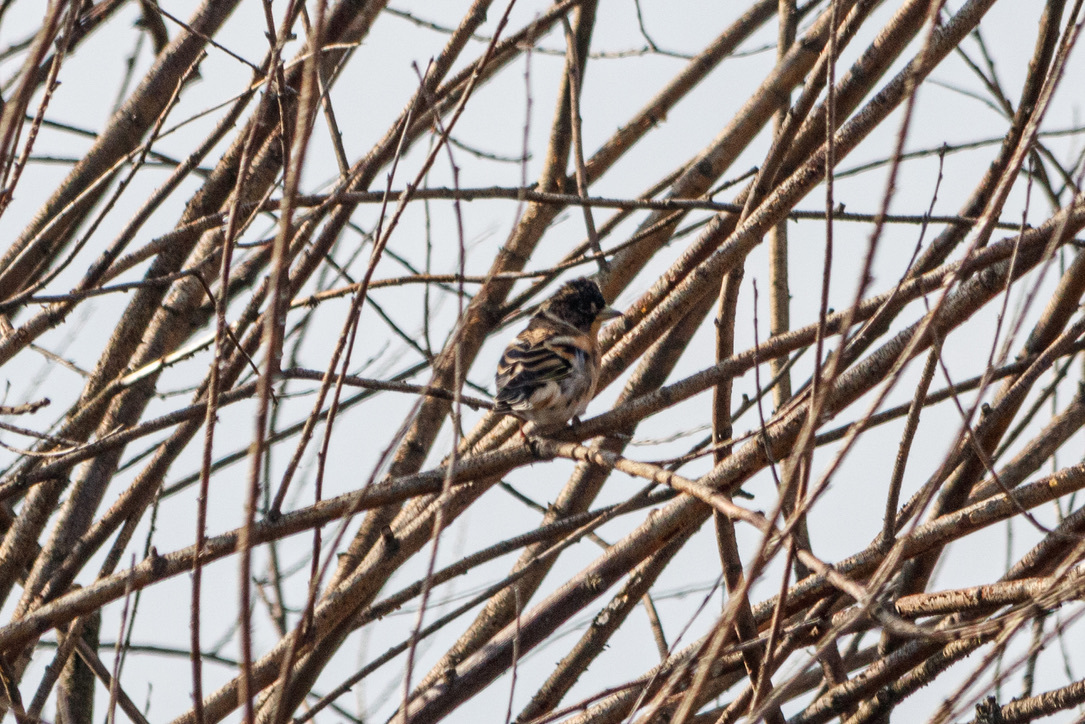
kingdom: Animalia
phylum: Chordata
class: Aves
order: Passeriformes
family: Fringillidae
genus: Fringilla
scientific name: Fringilla montifringilla
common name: Brambling
